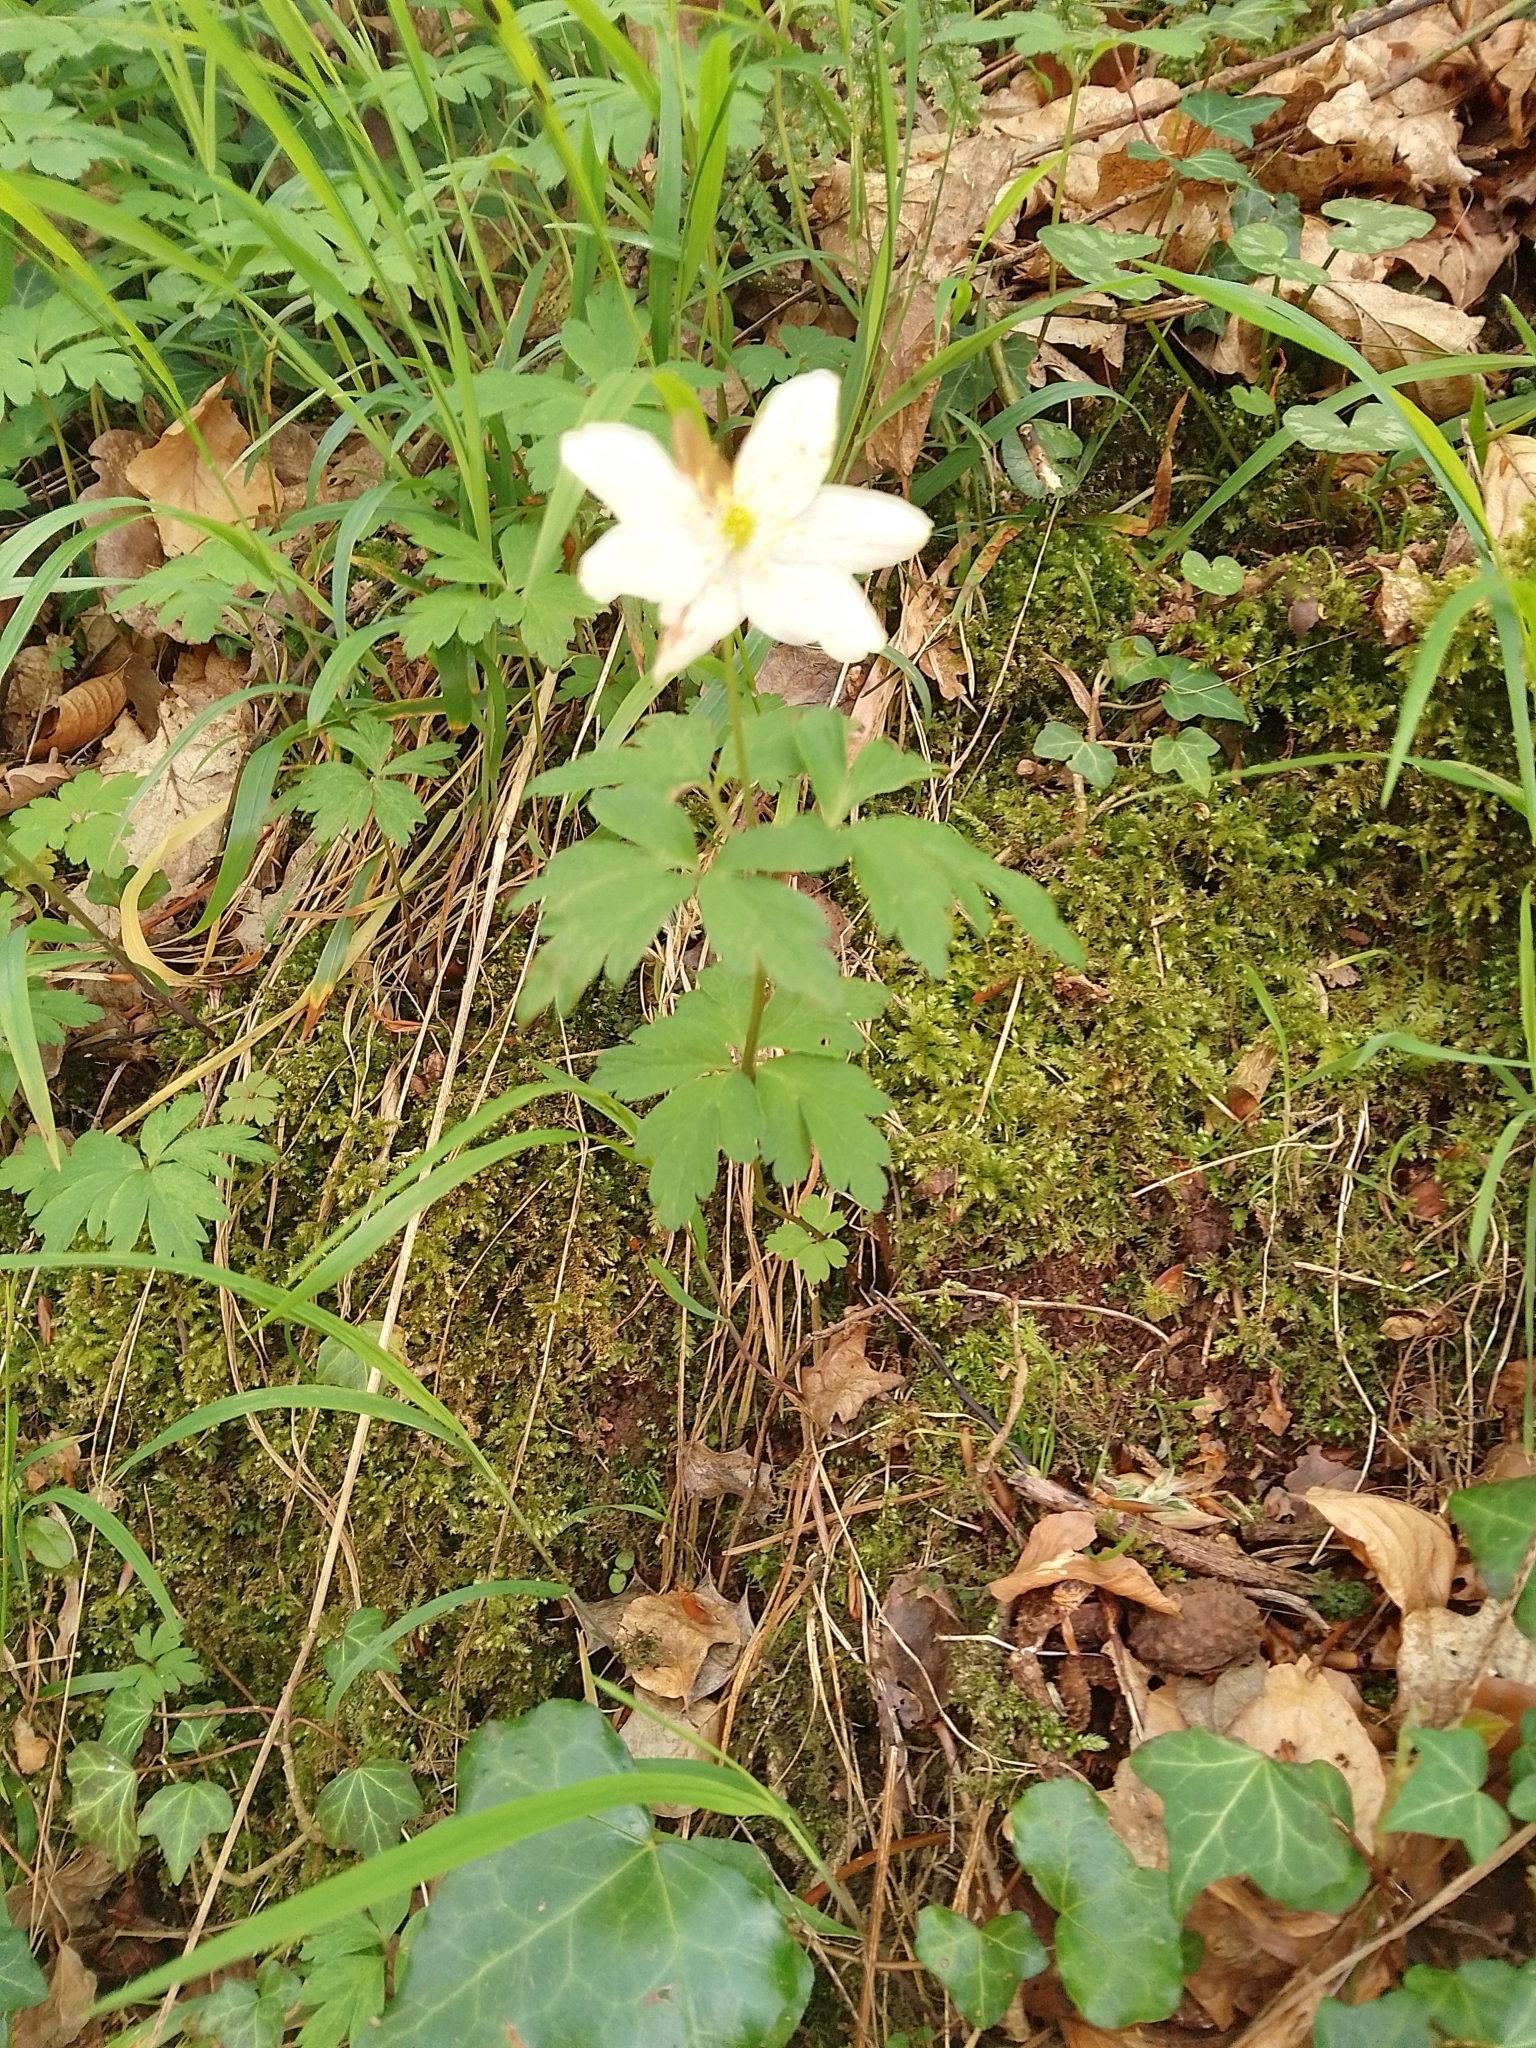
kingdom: Plantae
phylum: Tracheophyta
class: Magnoliopsida
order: Ranunculales
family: Ranunculaceae
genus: Anemone
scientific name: Anemone nemorosa
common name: Wood anemone
